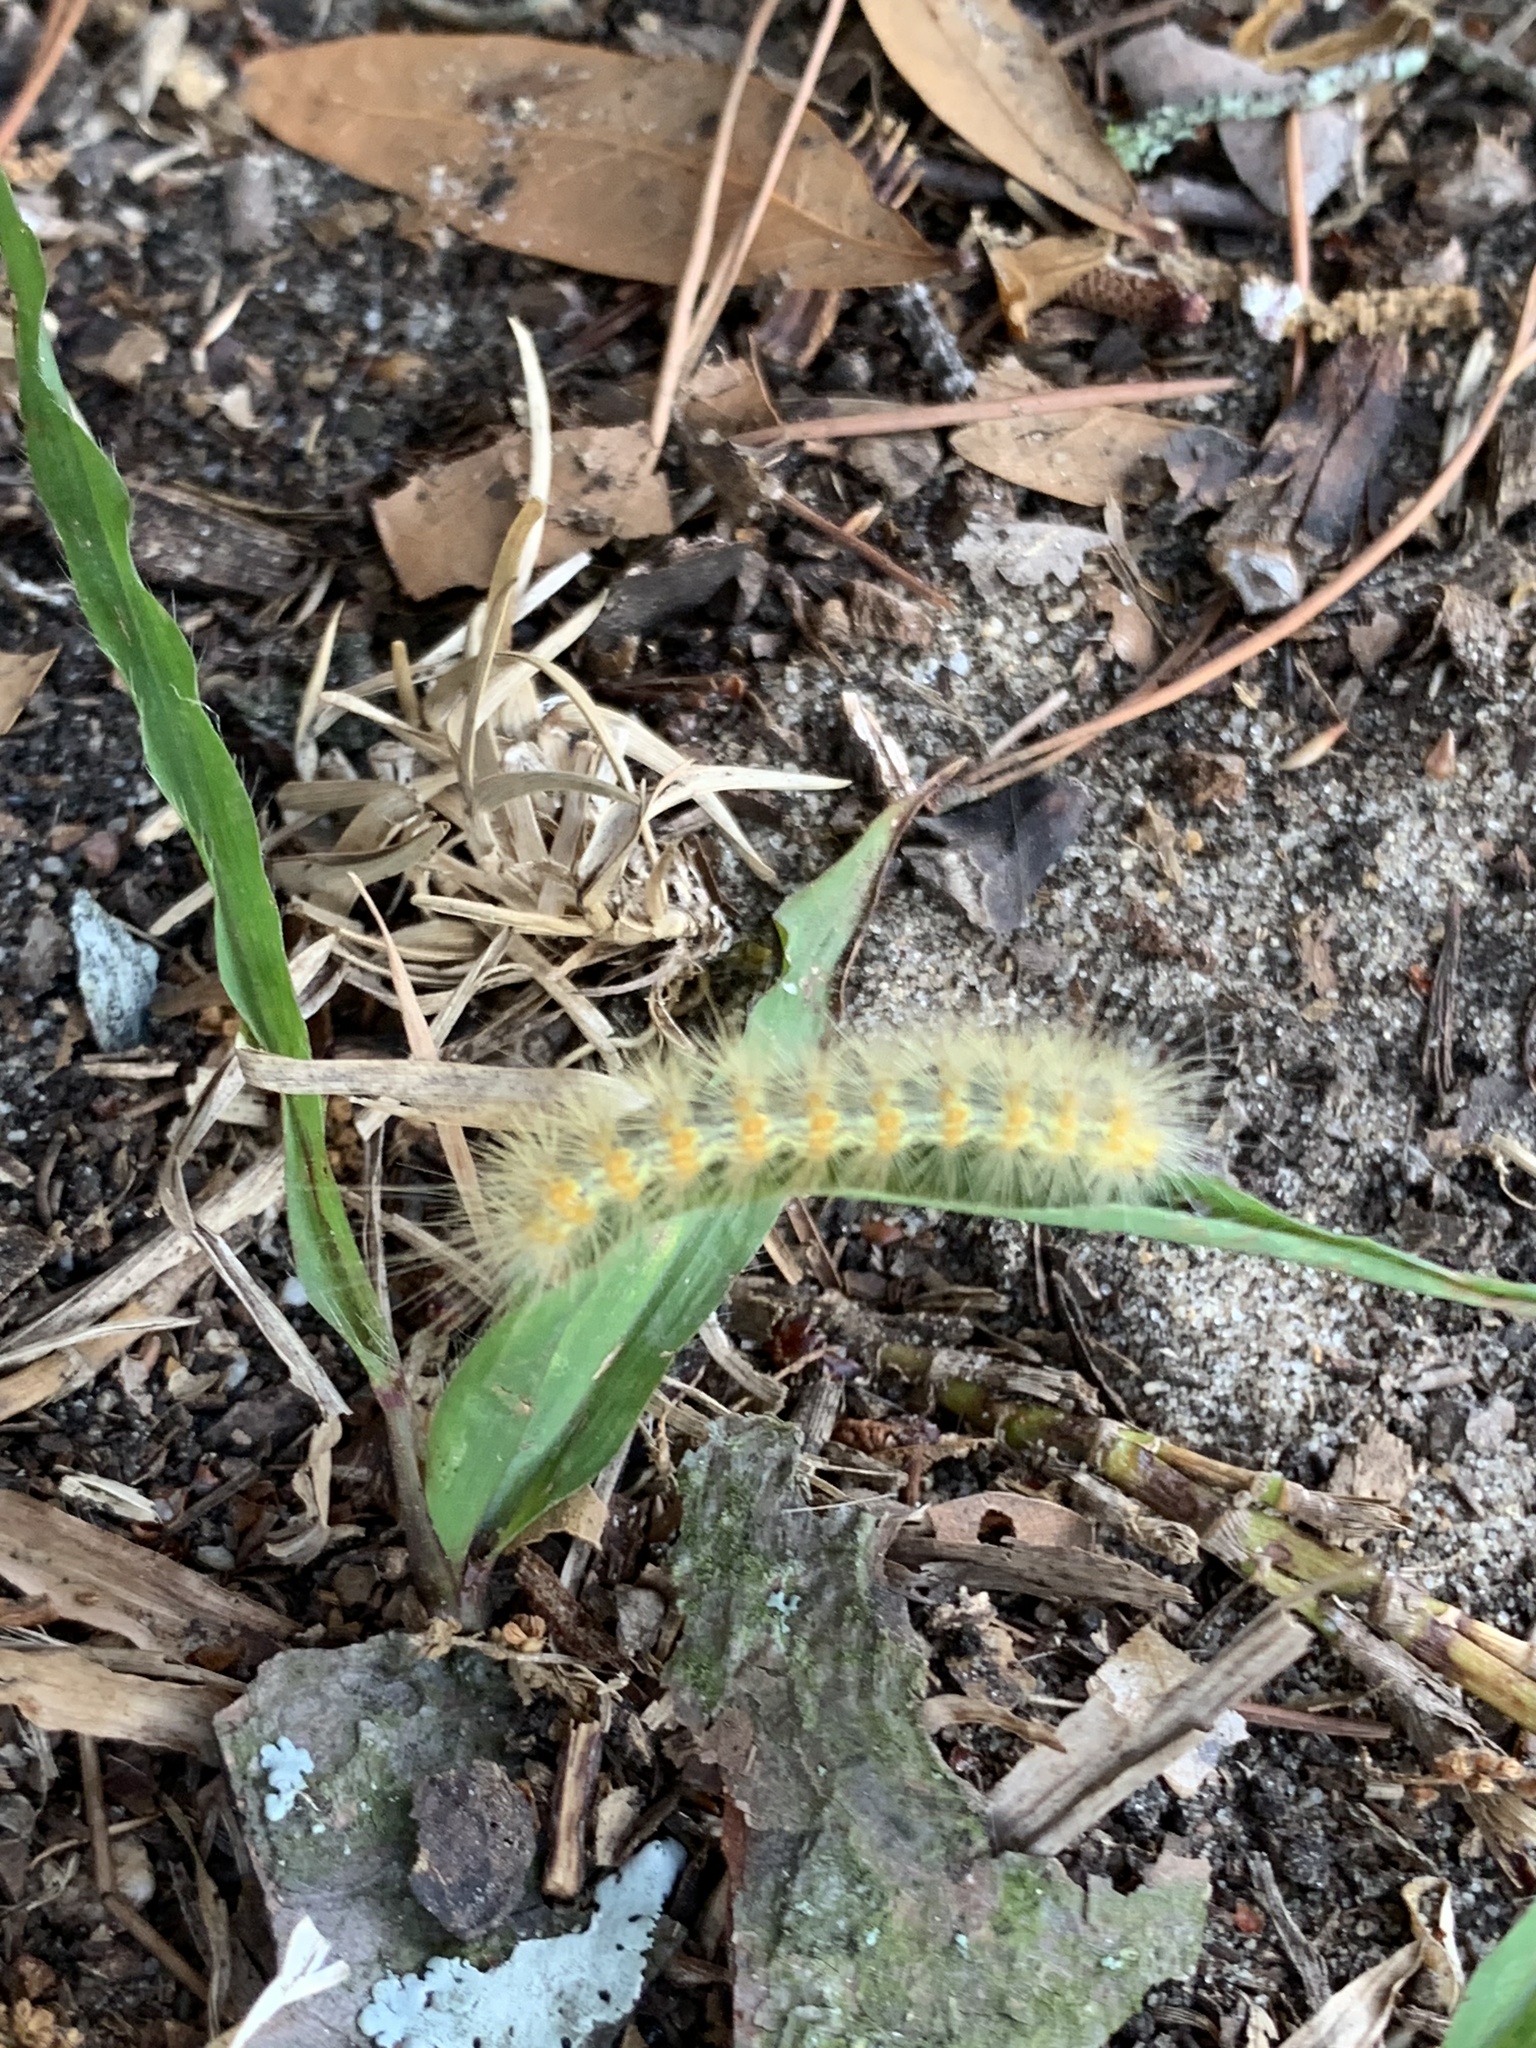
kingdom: Animalia
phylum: Arthropoda
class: Insecta
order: Lepidoptera
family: Erebidae
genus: Estigmene
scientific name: Estigmene acrea
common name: Salt marsh moth
